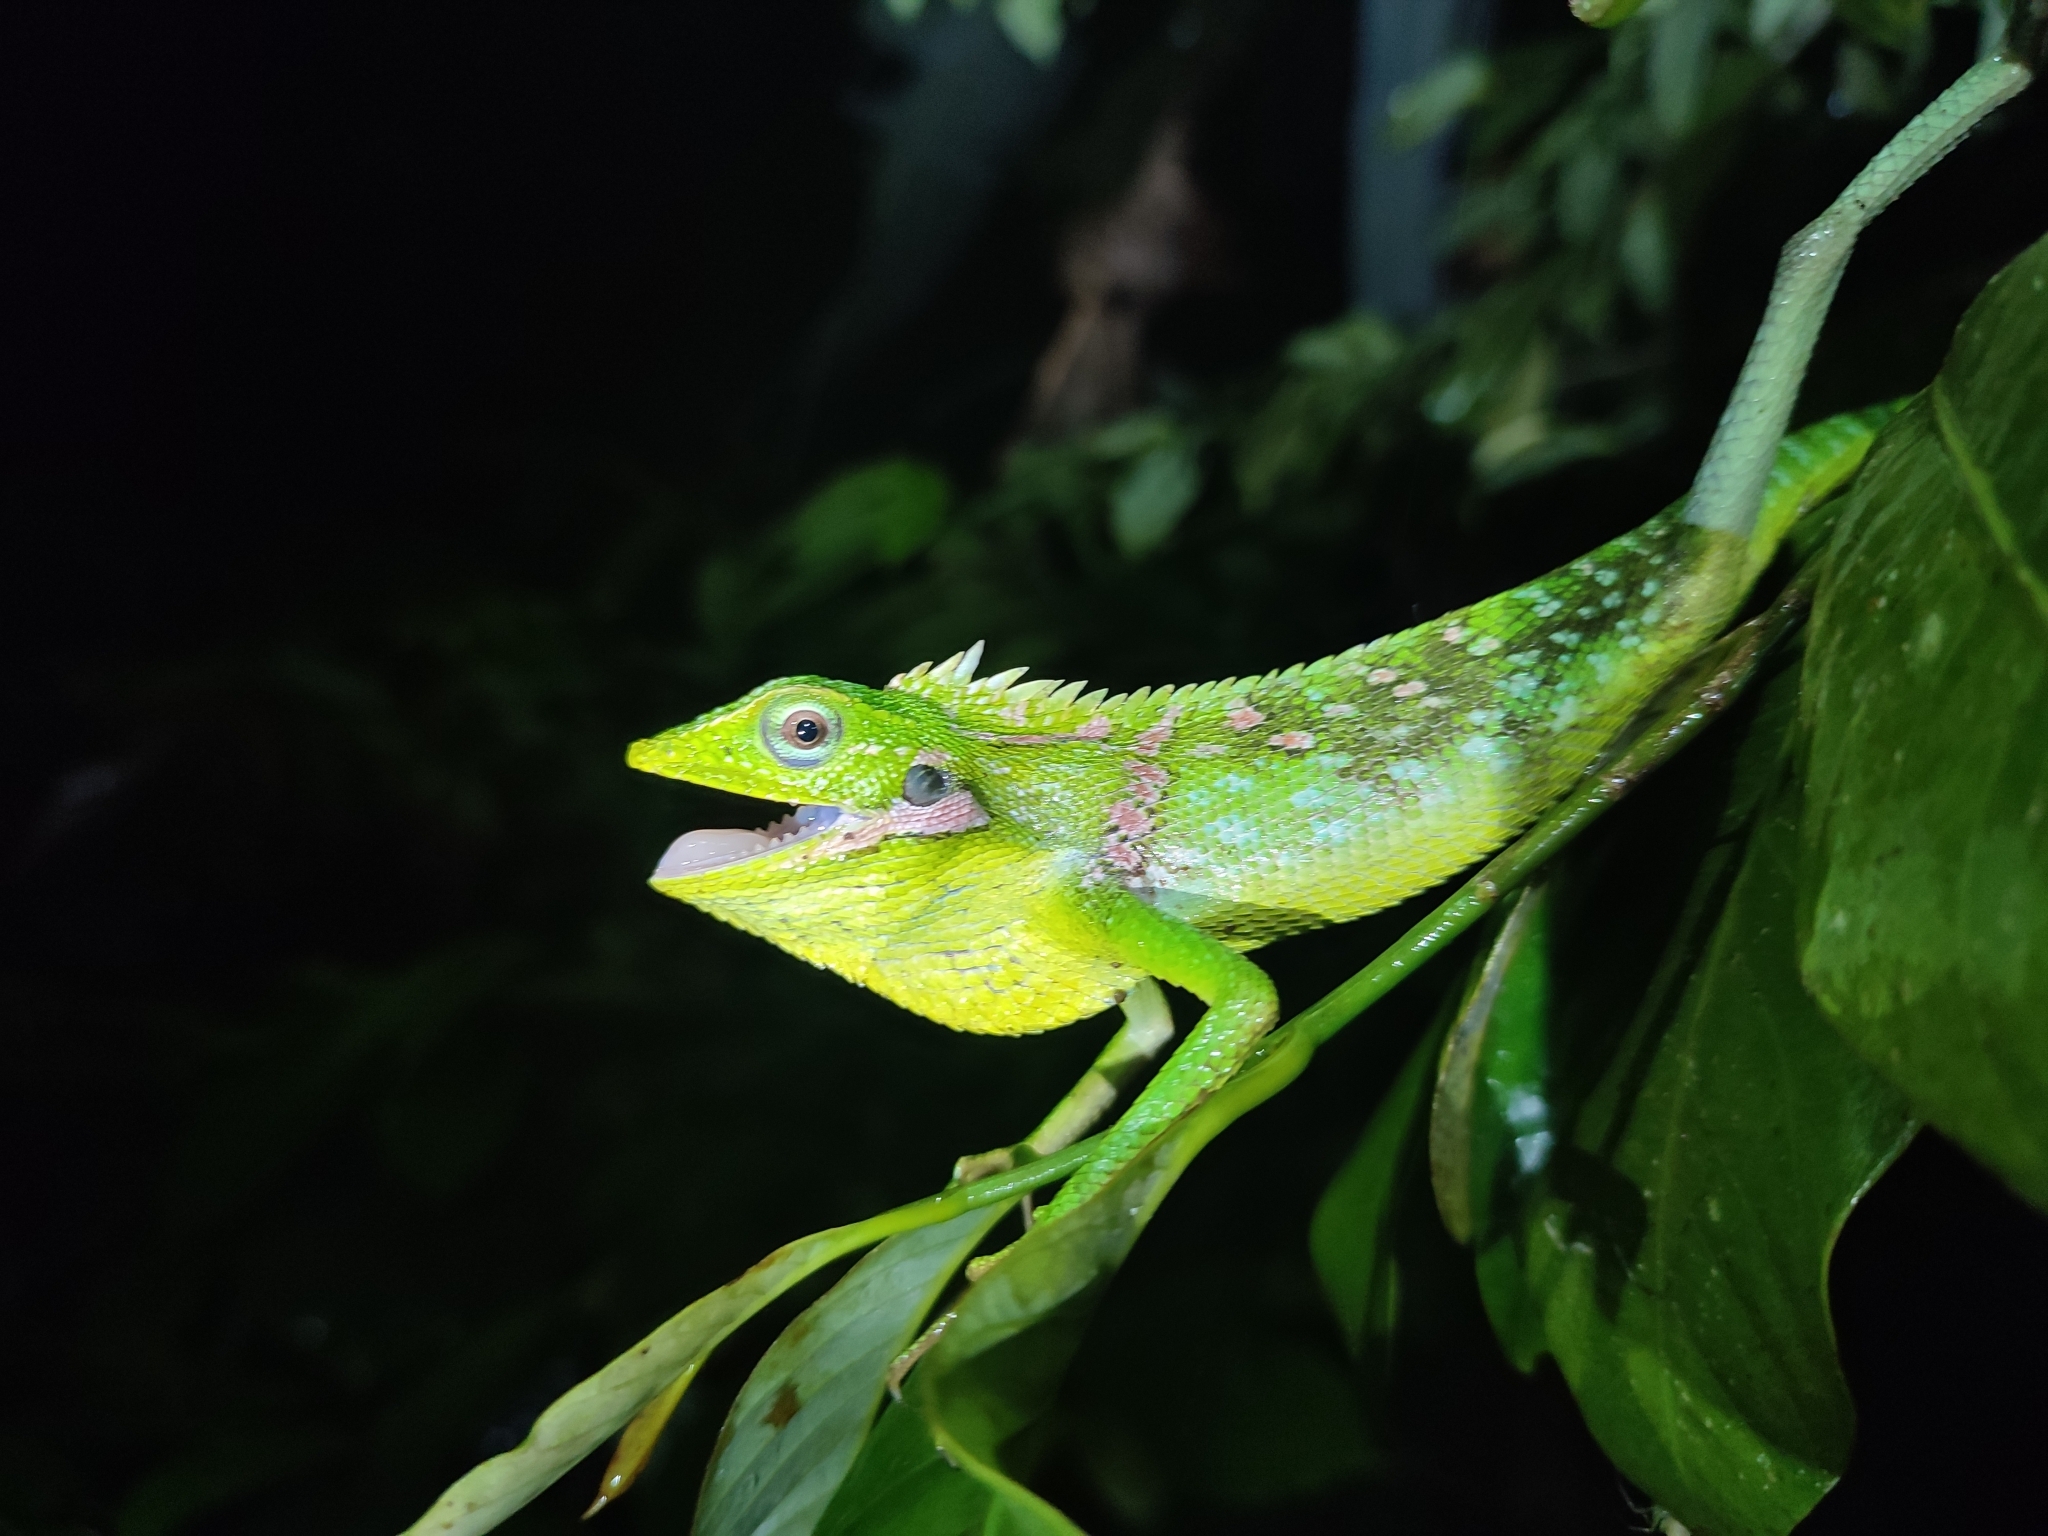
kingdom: Animalia
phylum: Chordata
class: Squamata
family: Agamidae
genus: Bronchocela
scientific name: Bronchocela jubata
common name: Maned forest lizard
